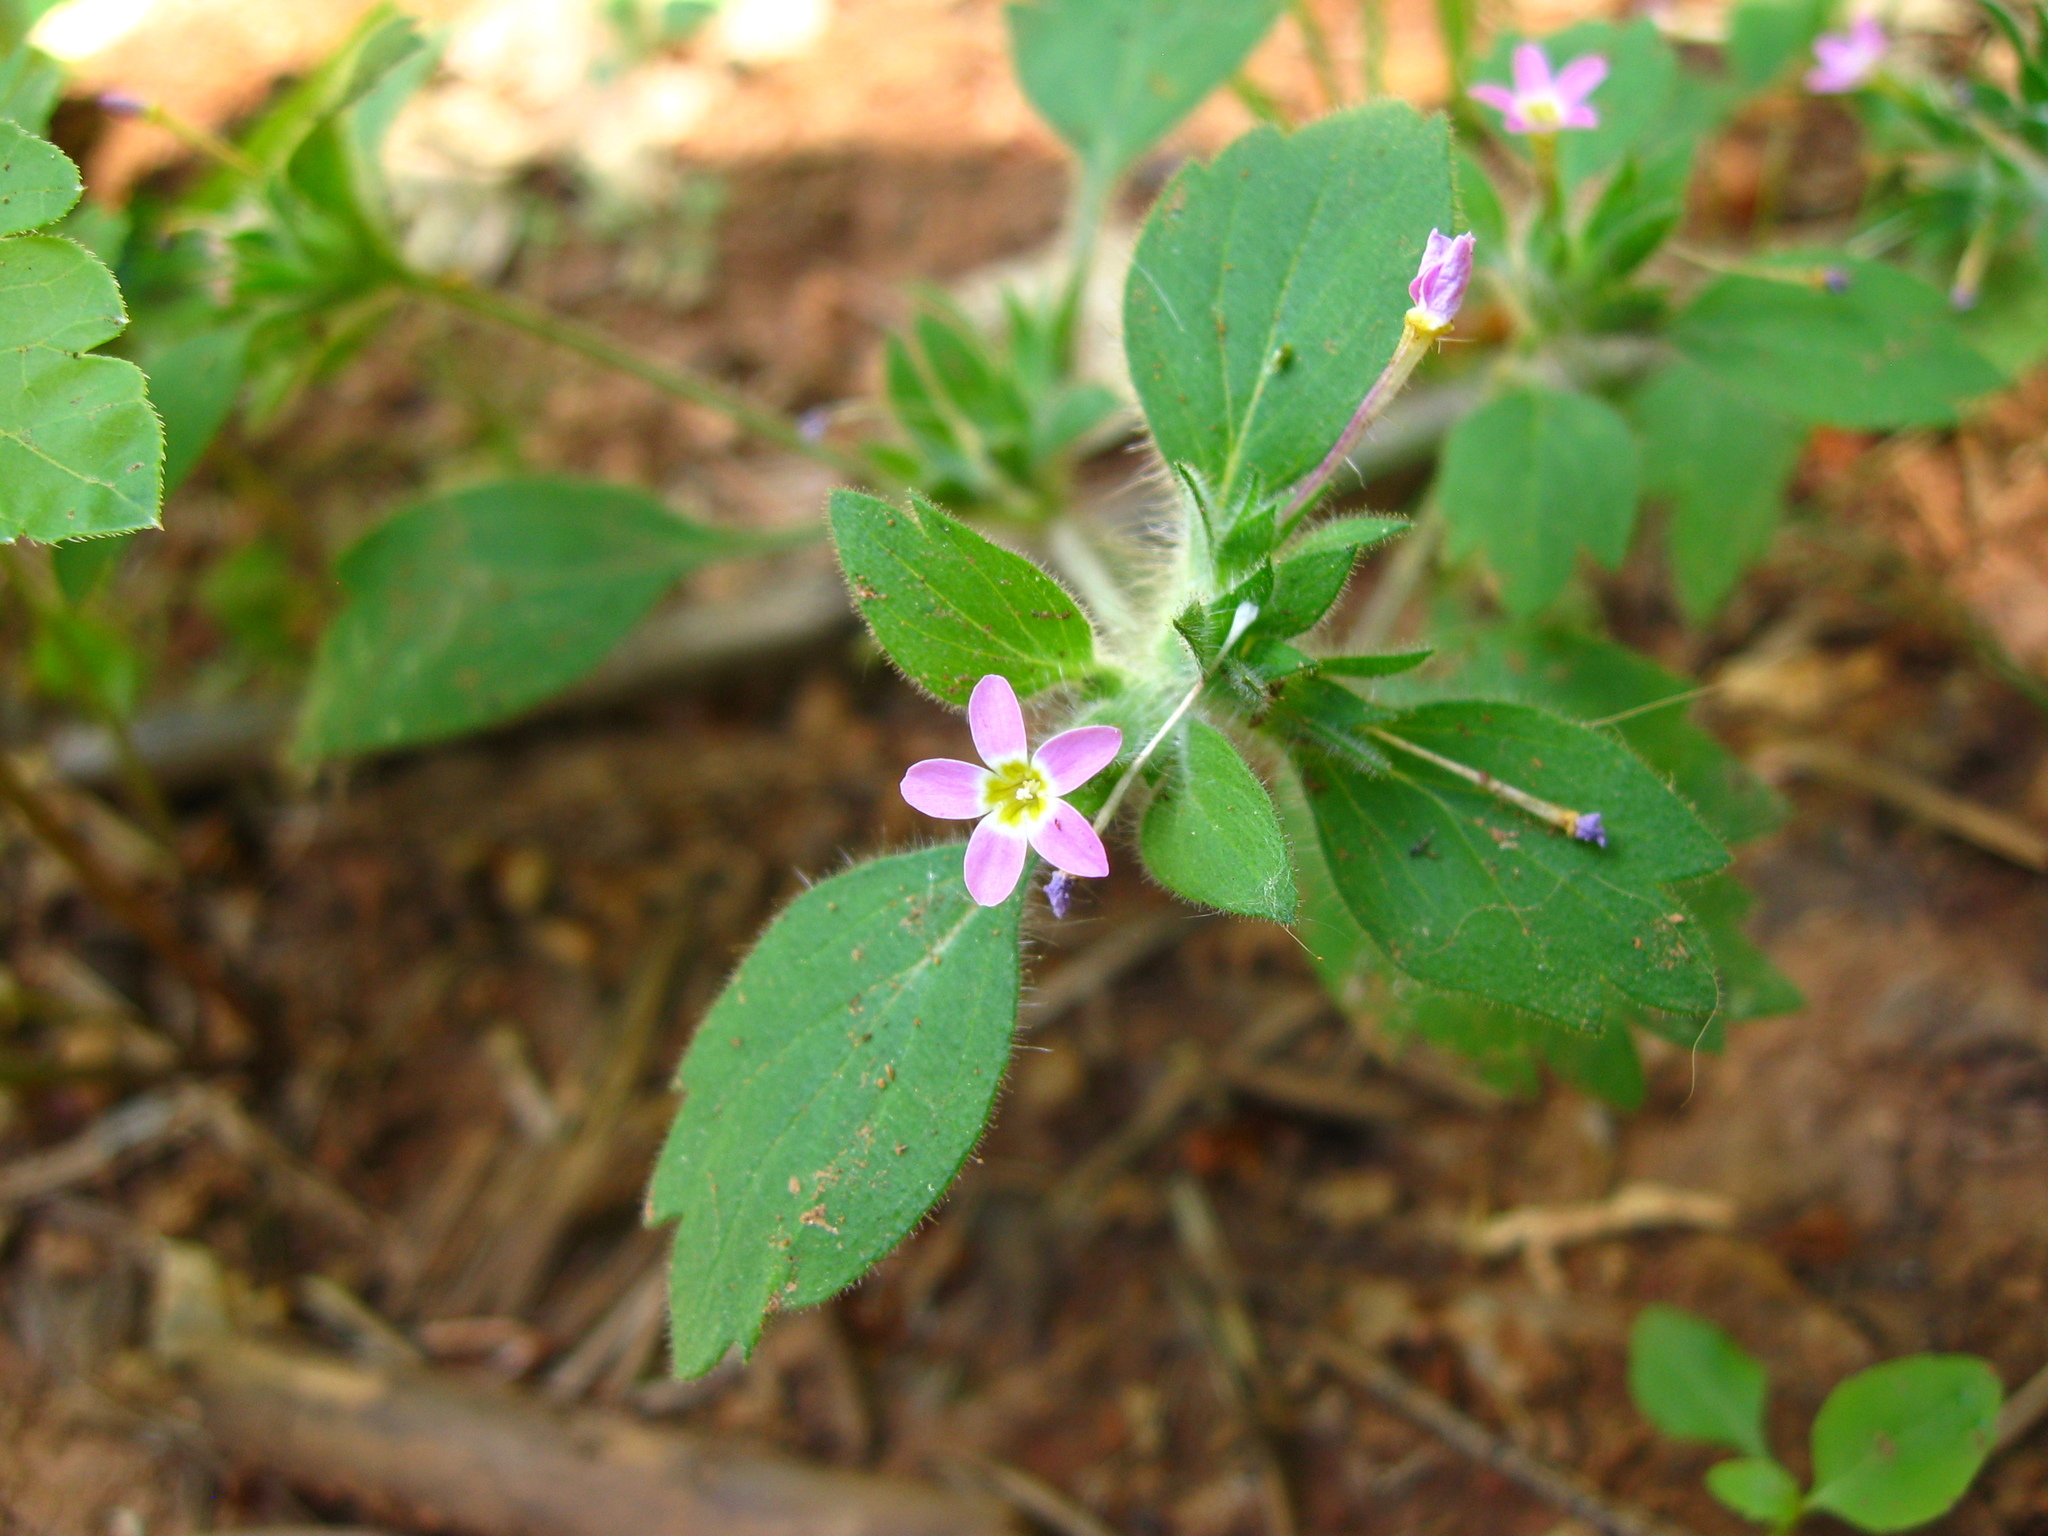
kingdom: Plantae
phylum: Tracheophyta
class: Magnoliopsida
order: Ericales
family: Polemoniaceae
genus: Collomia
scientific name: Collomia heterophylla
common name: Variable-leaved collomia
